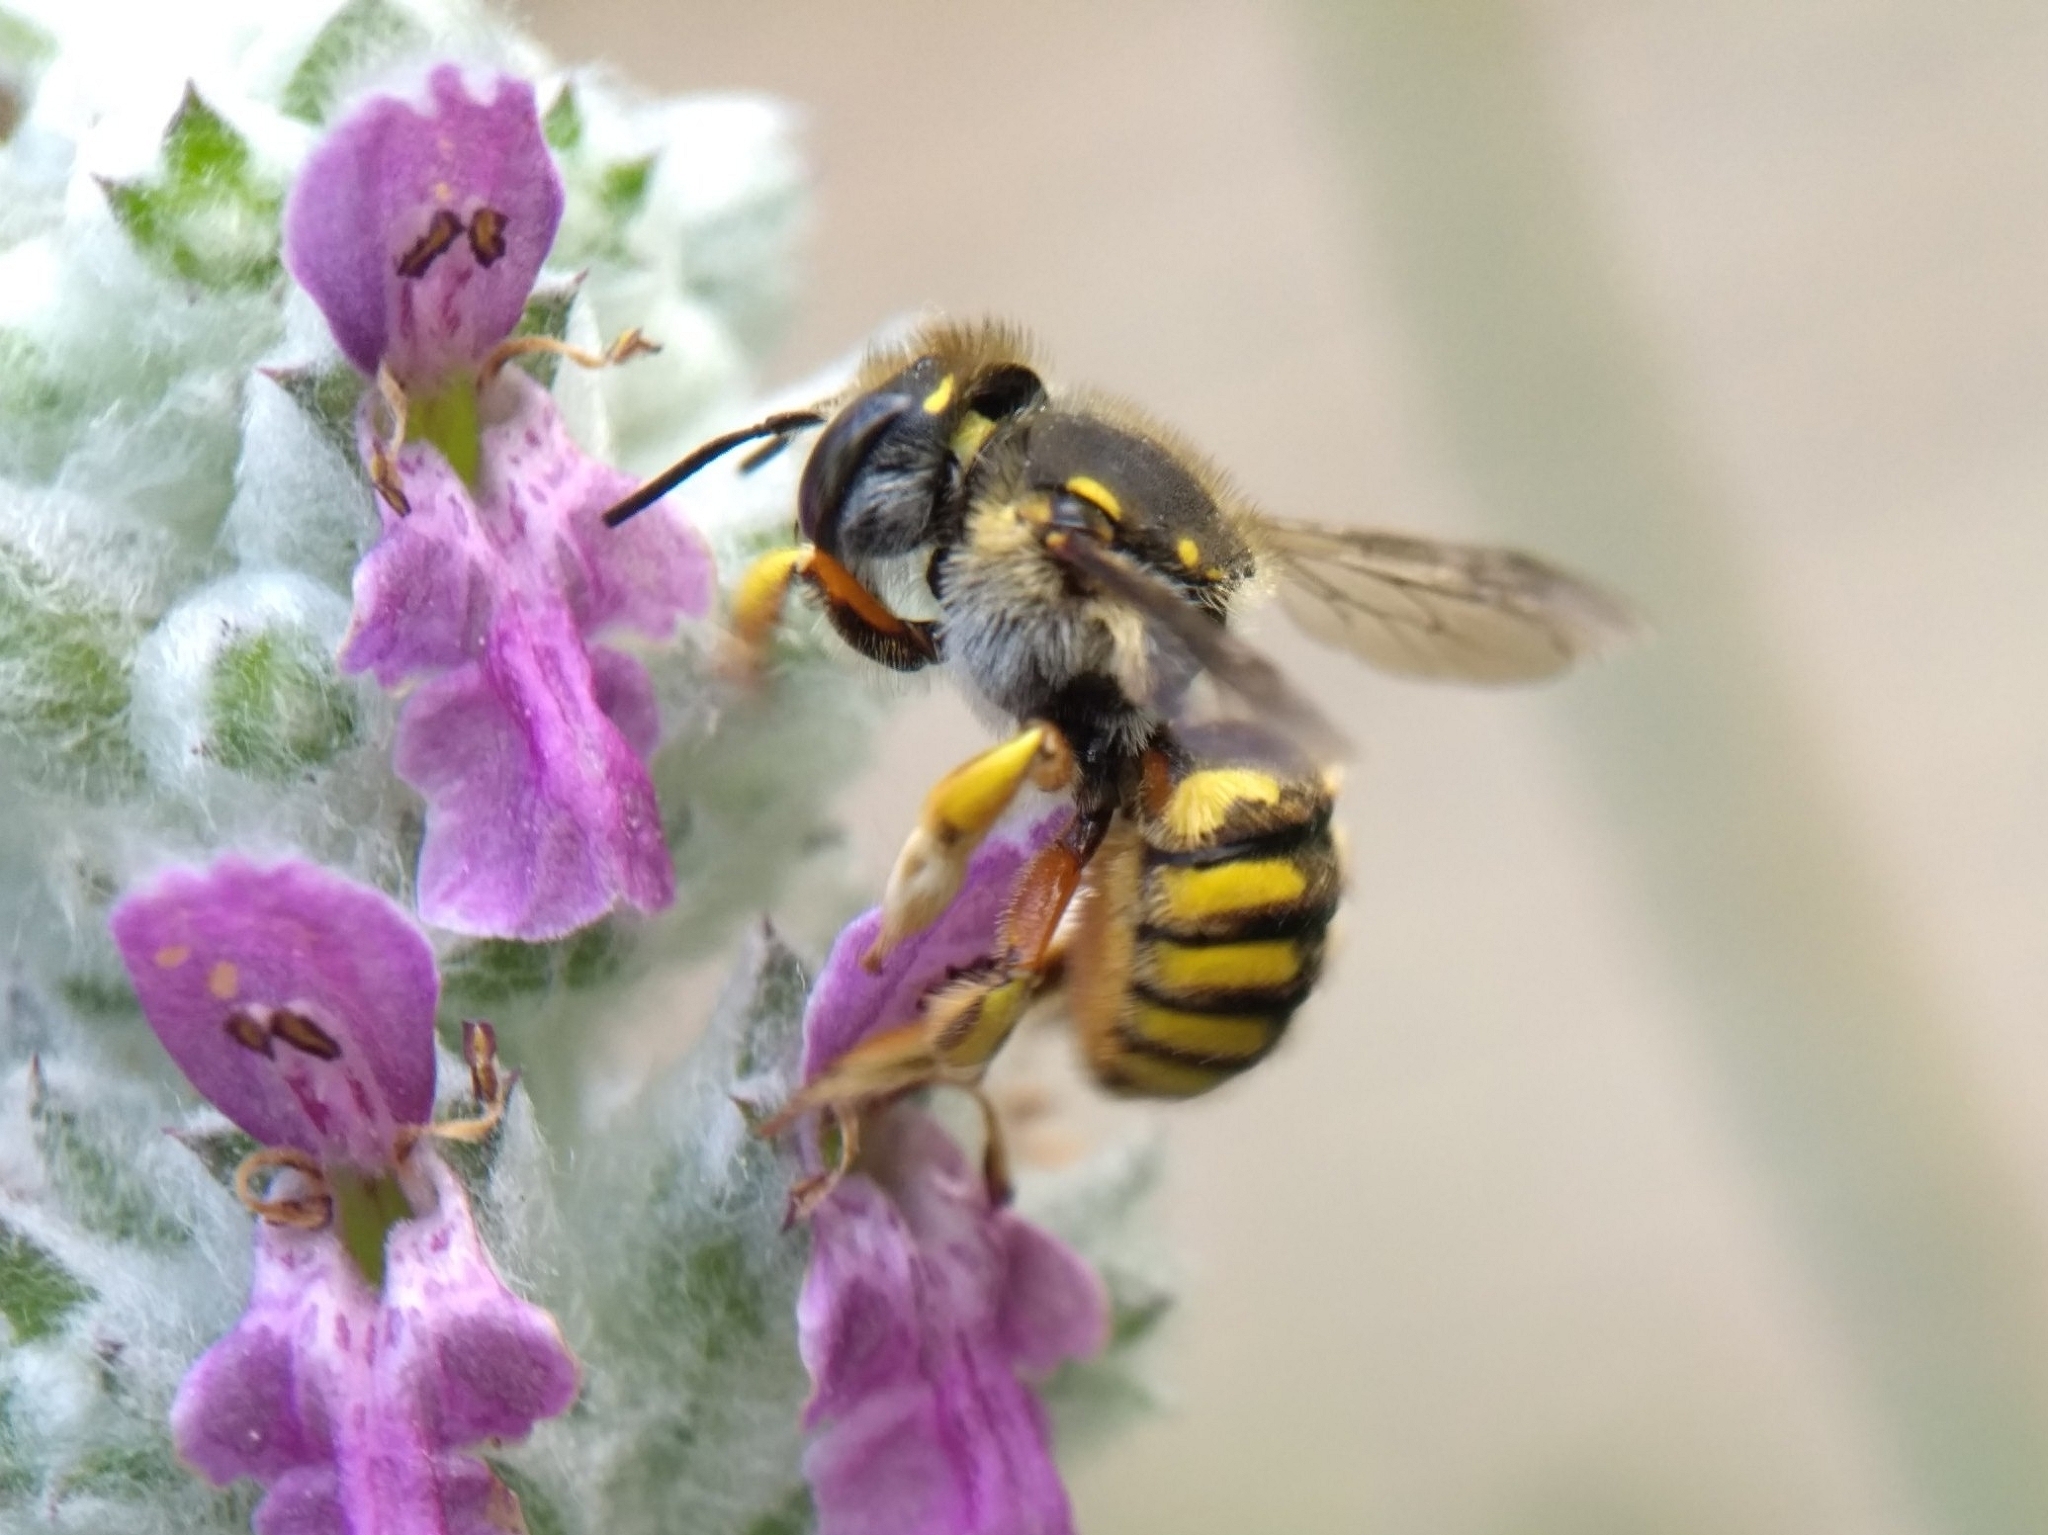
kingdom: Animalia
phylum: Arthropoda
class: Insecta
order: Hymenoptera
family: Megachilidae
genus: Anthidium
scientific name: Anthidium manicatum
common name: Wool carder bee
